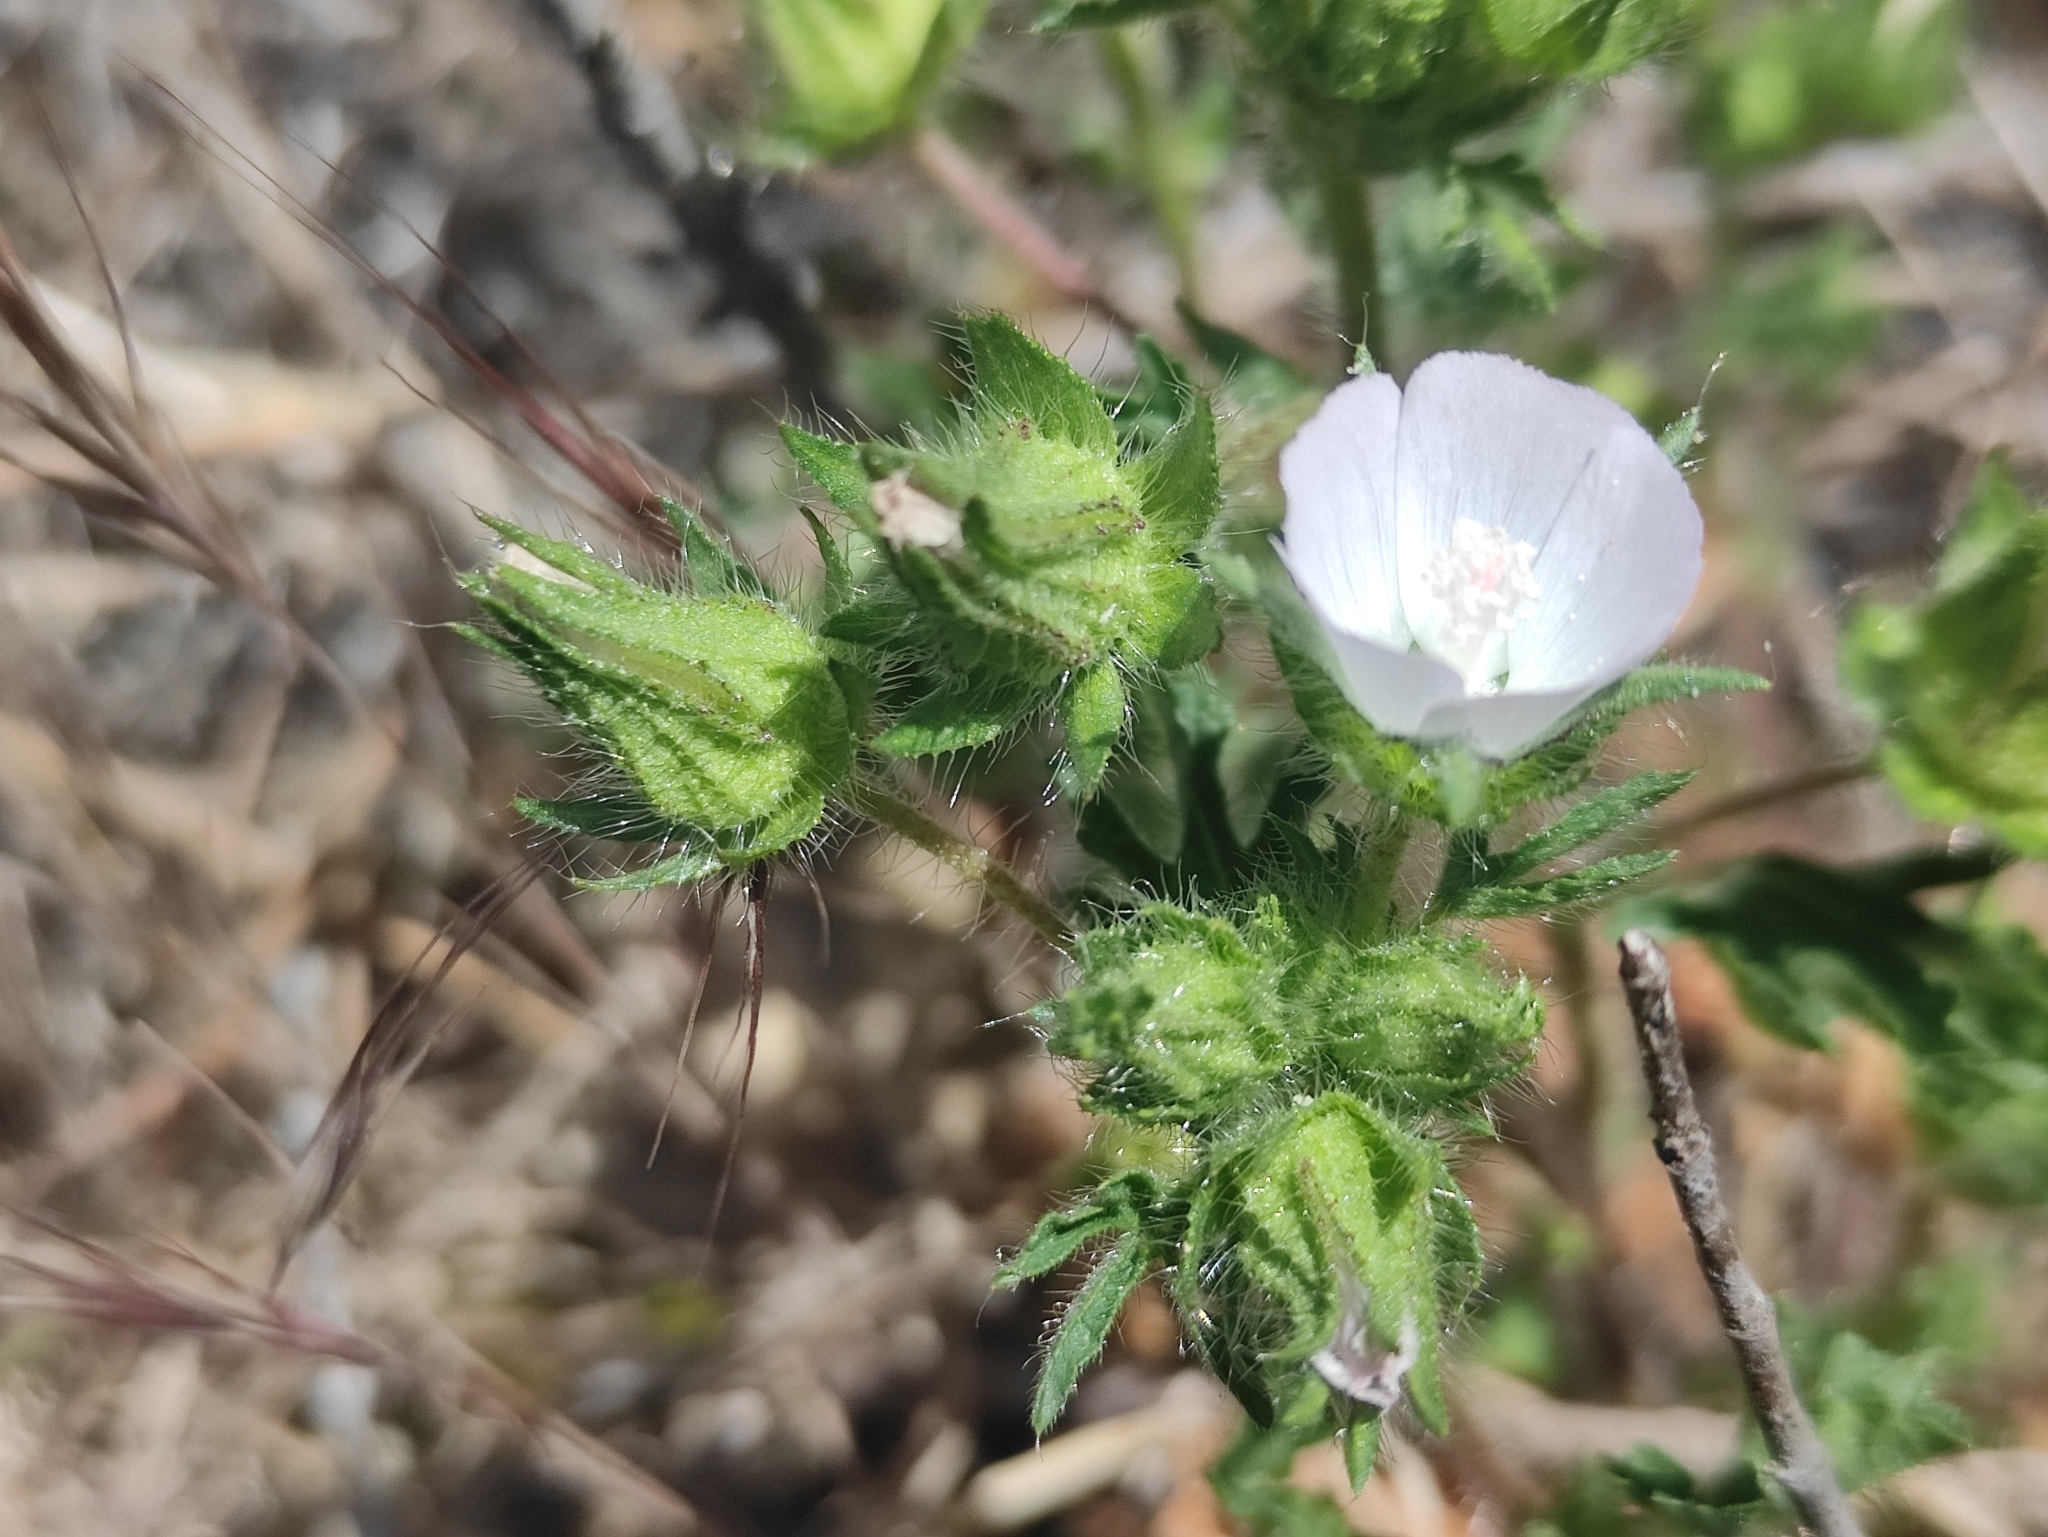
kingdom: Plantae
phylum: Tracheophyta
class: Magnoliopsida
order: Malvales
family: Malvaceae
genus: Althaea
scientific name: Althaea hirsuta
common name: Rough marsh-mallow
